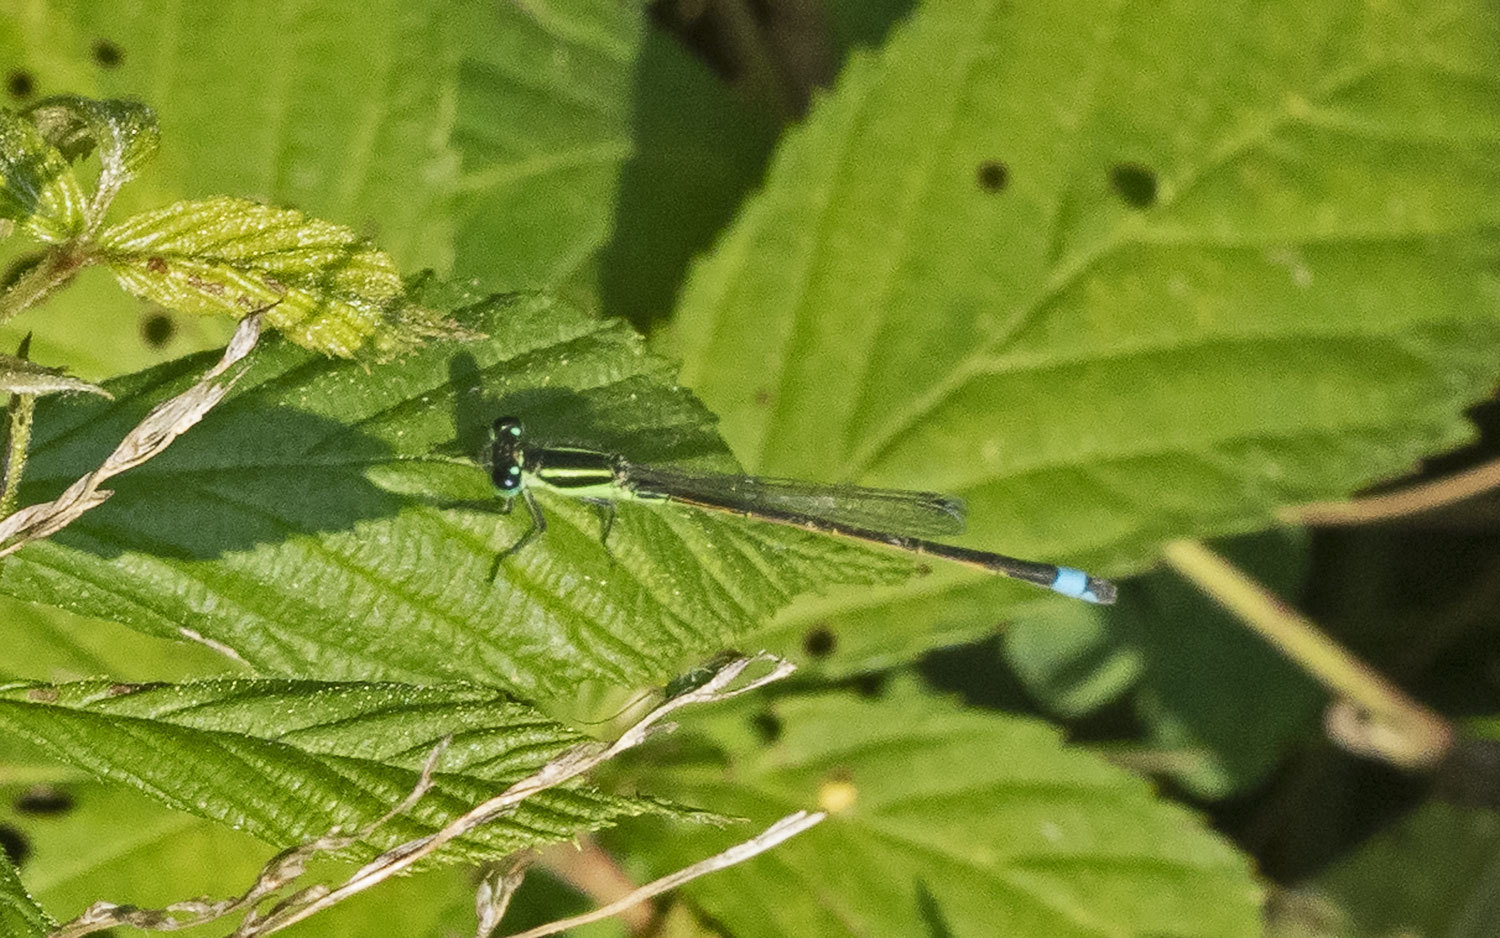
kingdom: Animalia
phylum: Arthropoda
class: Insecta
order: Odonata
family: Coenagrionidae
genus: Ischnura
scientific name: Ischnura ramburii
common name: Rambur's forktail
